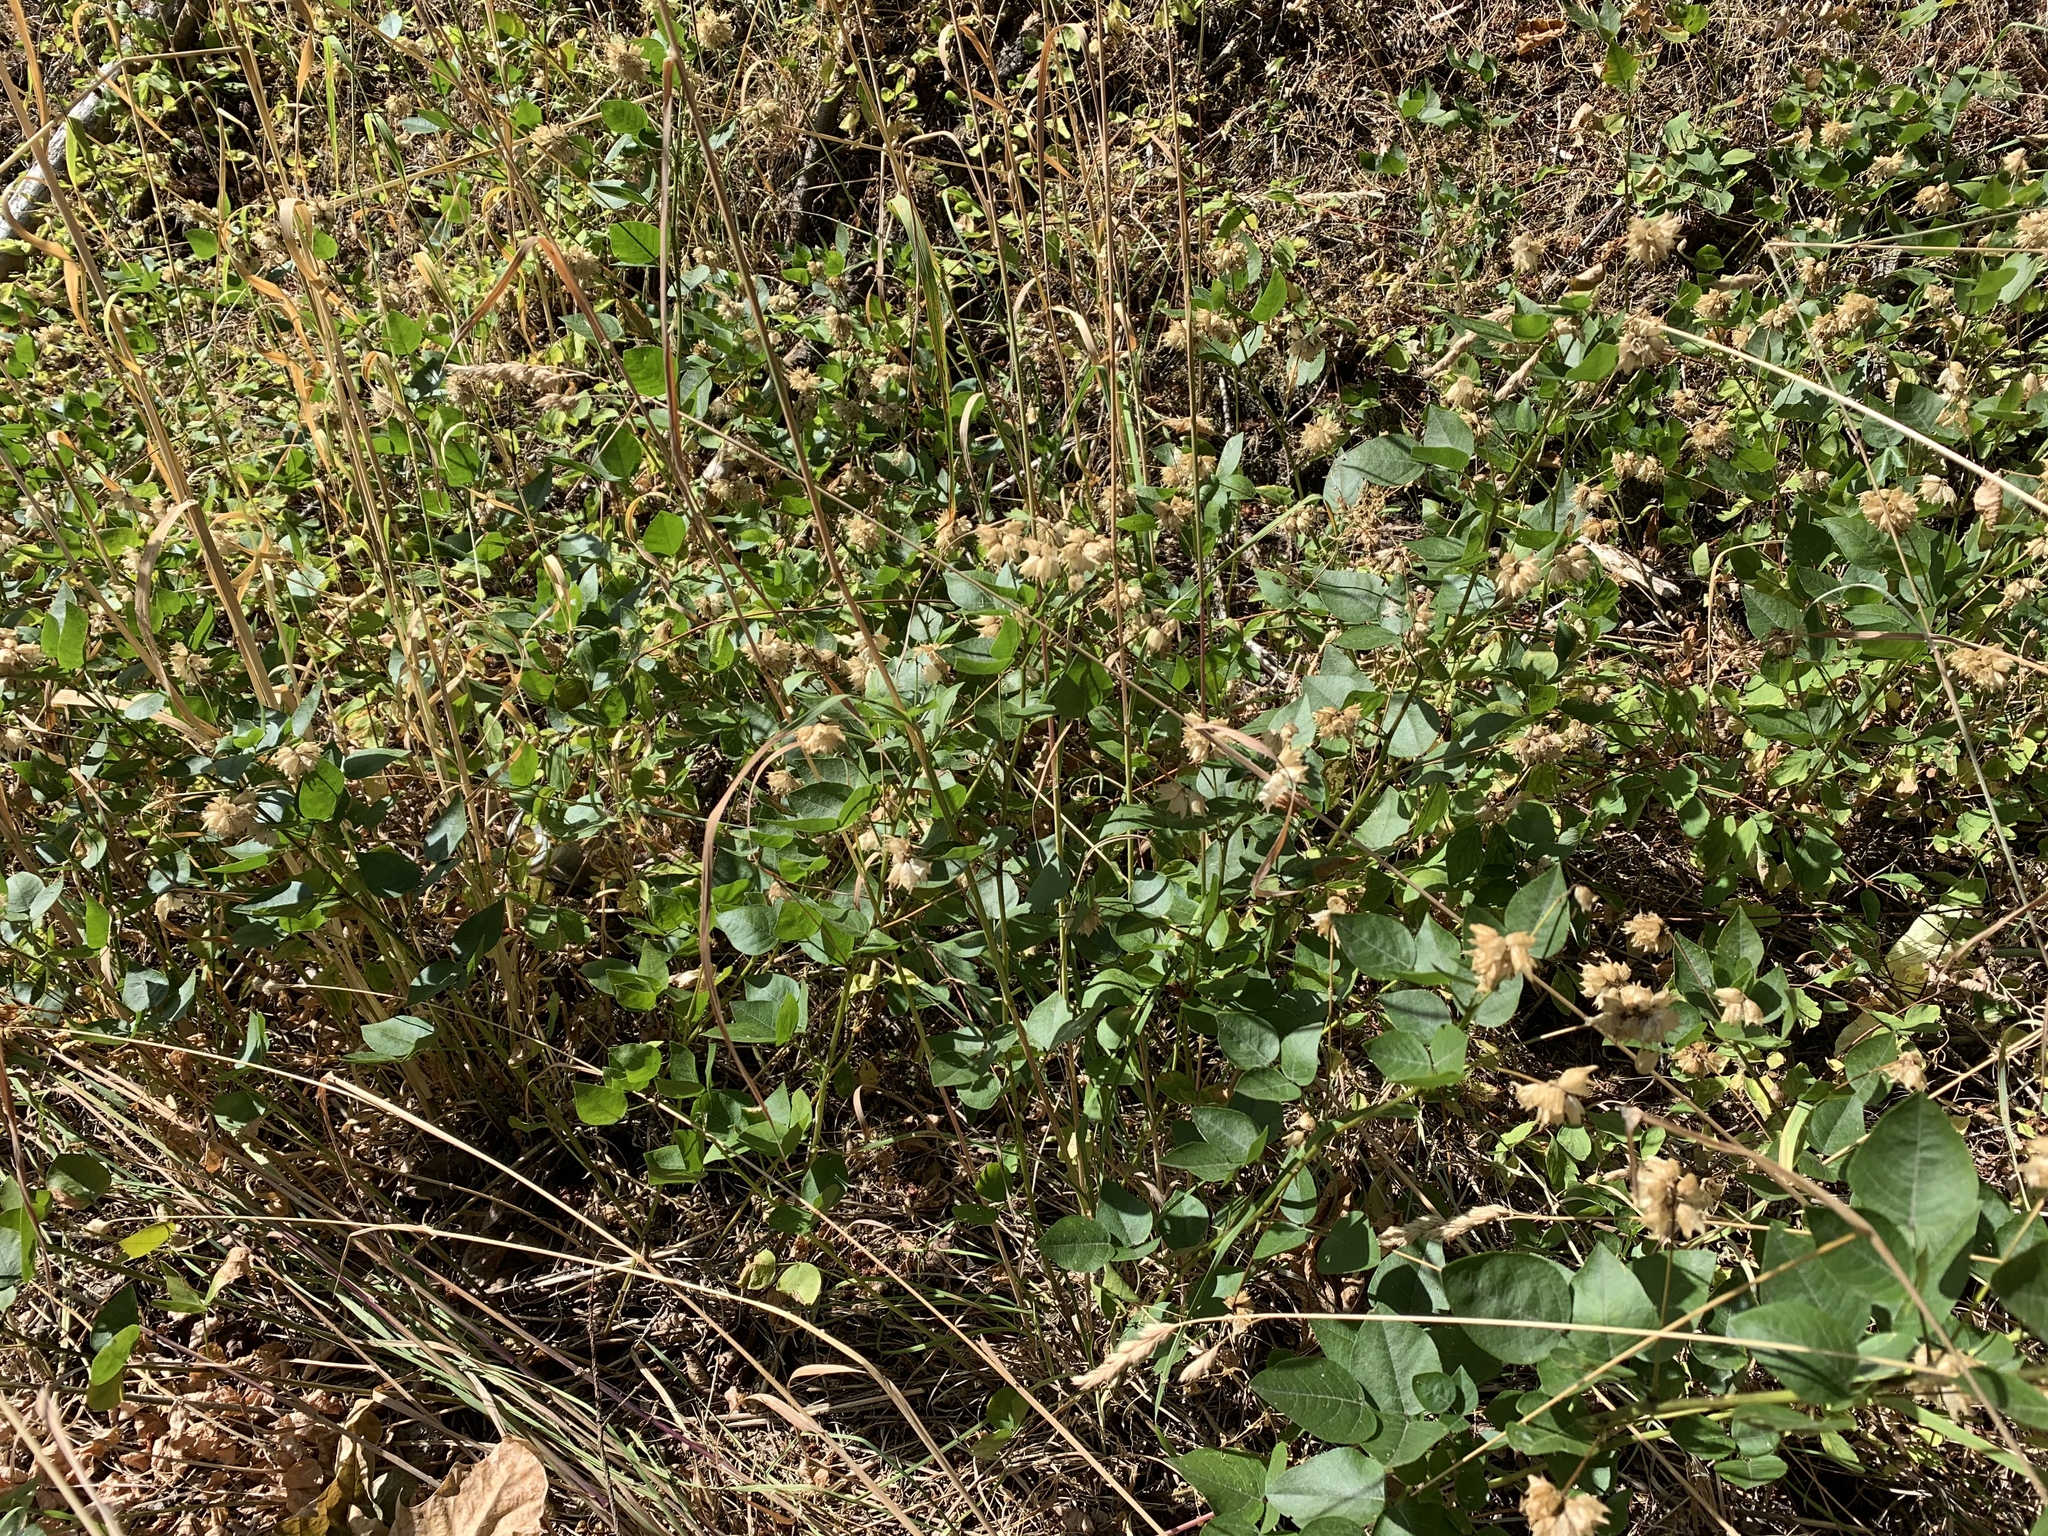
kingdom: Plantae
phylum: Tracheophyta
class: Magnoliopsida
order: Fabales
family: Fabaceae
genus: Rupertia
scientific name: Rupertia physodes
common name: California-tea
